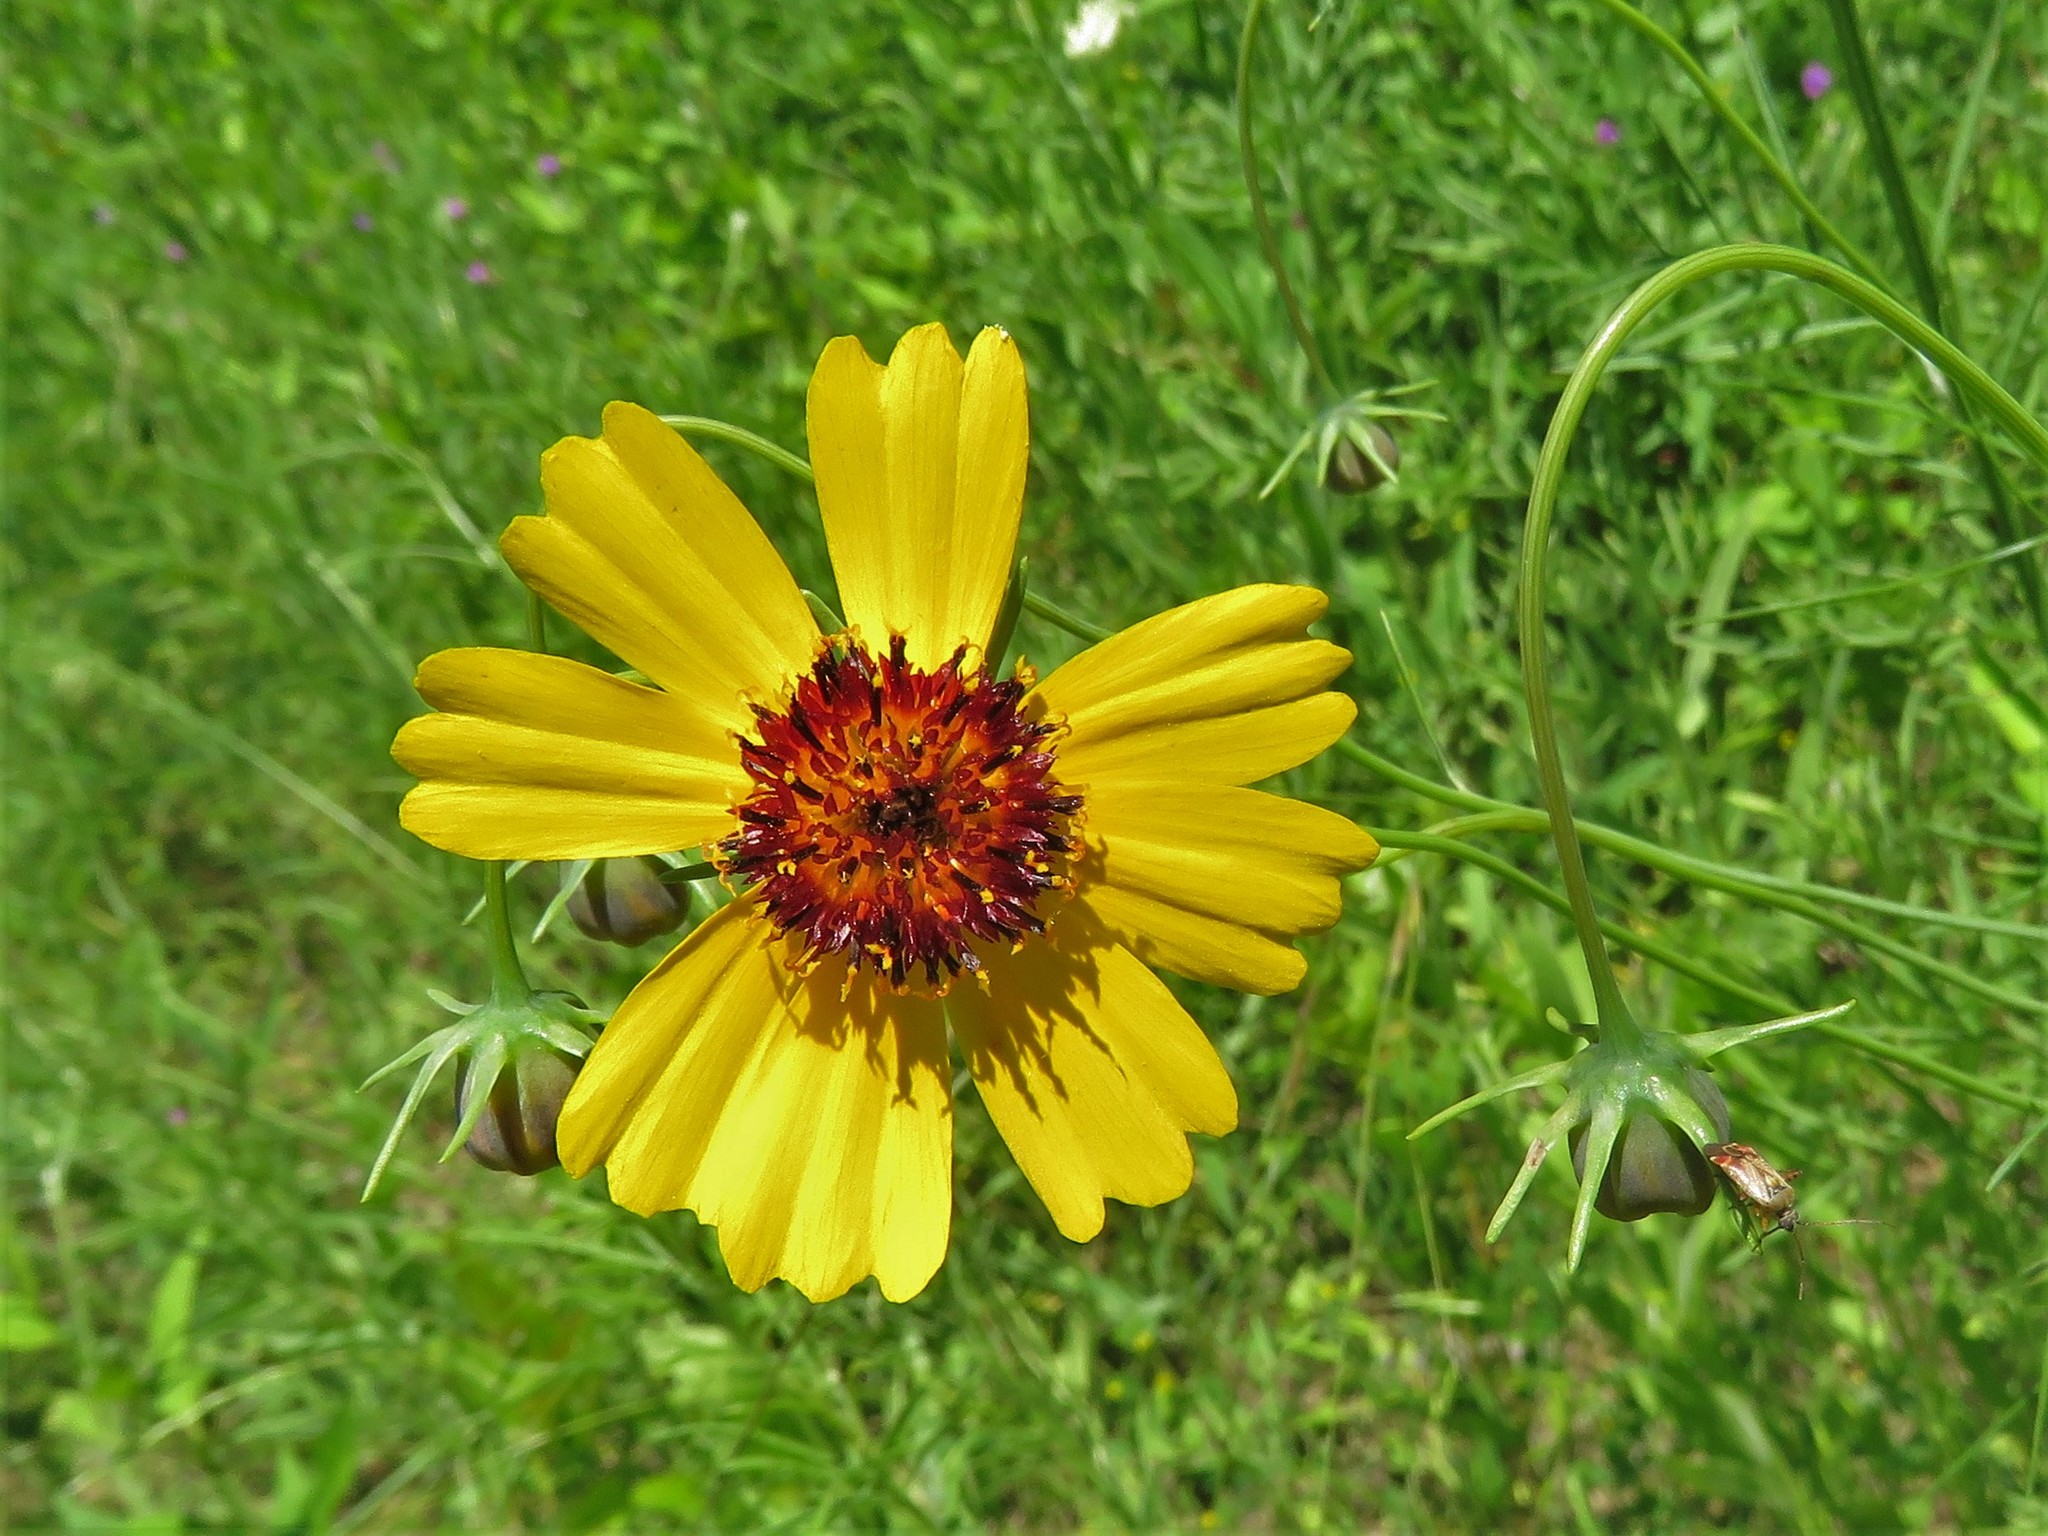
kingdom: Plantae
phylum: Tracheophyta
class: Magnoliopsida
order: Asterales
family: Asteraceae
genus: Thelesperma
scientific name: Thelesperma filifolium
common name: Stiff greenthread
